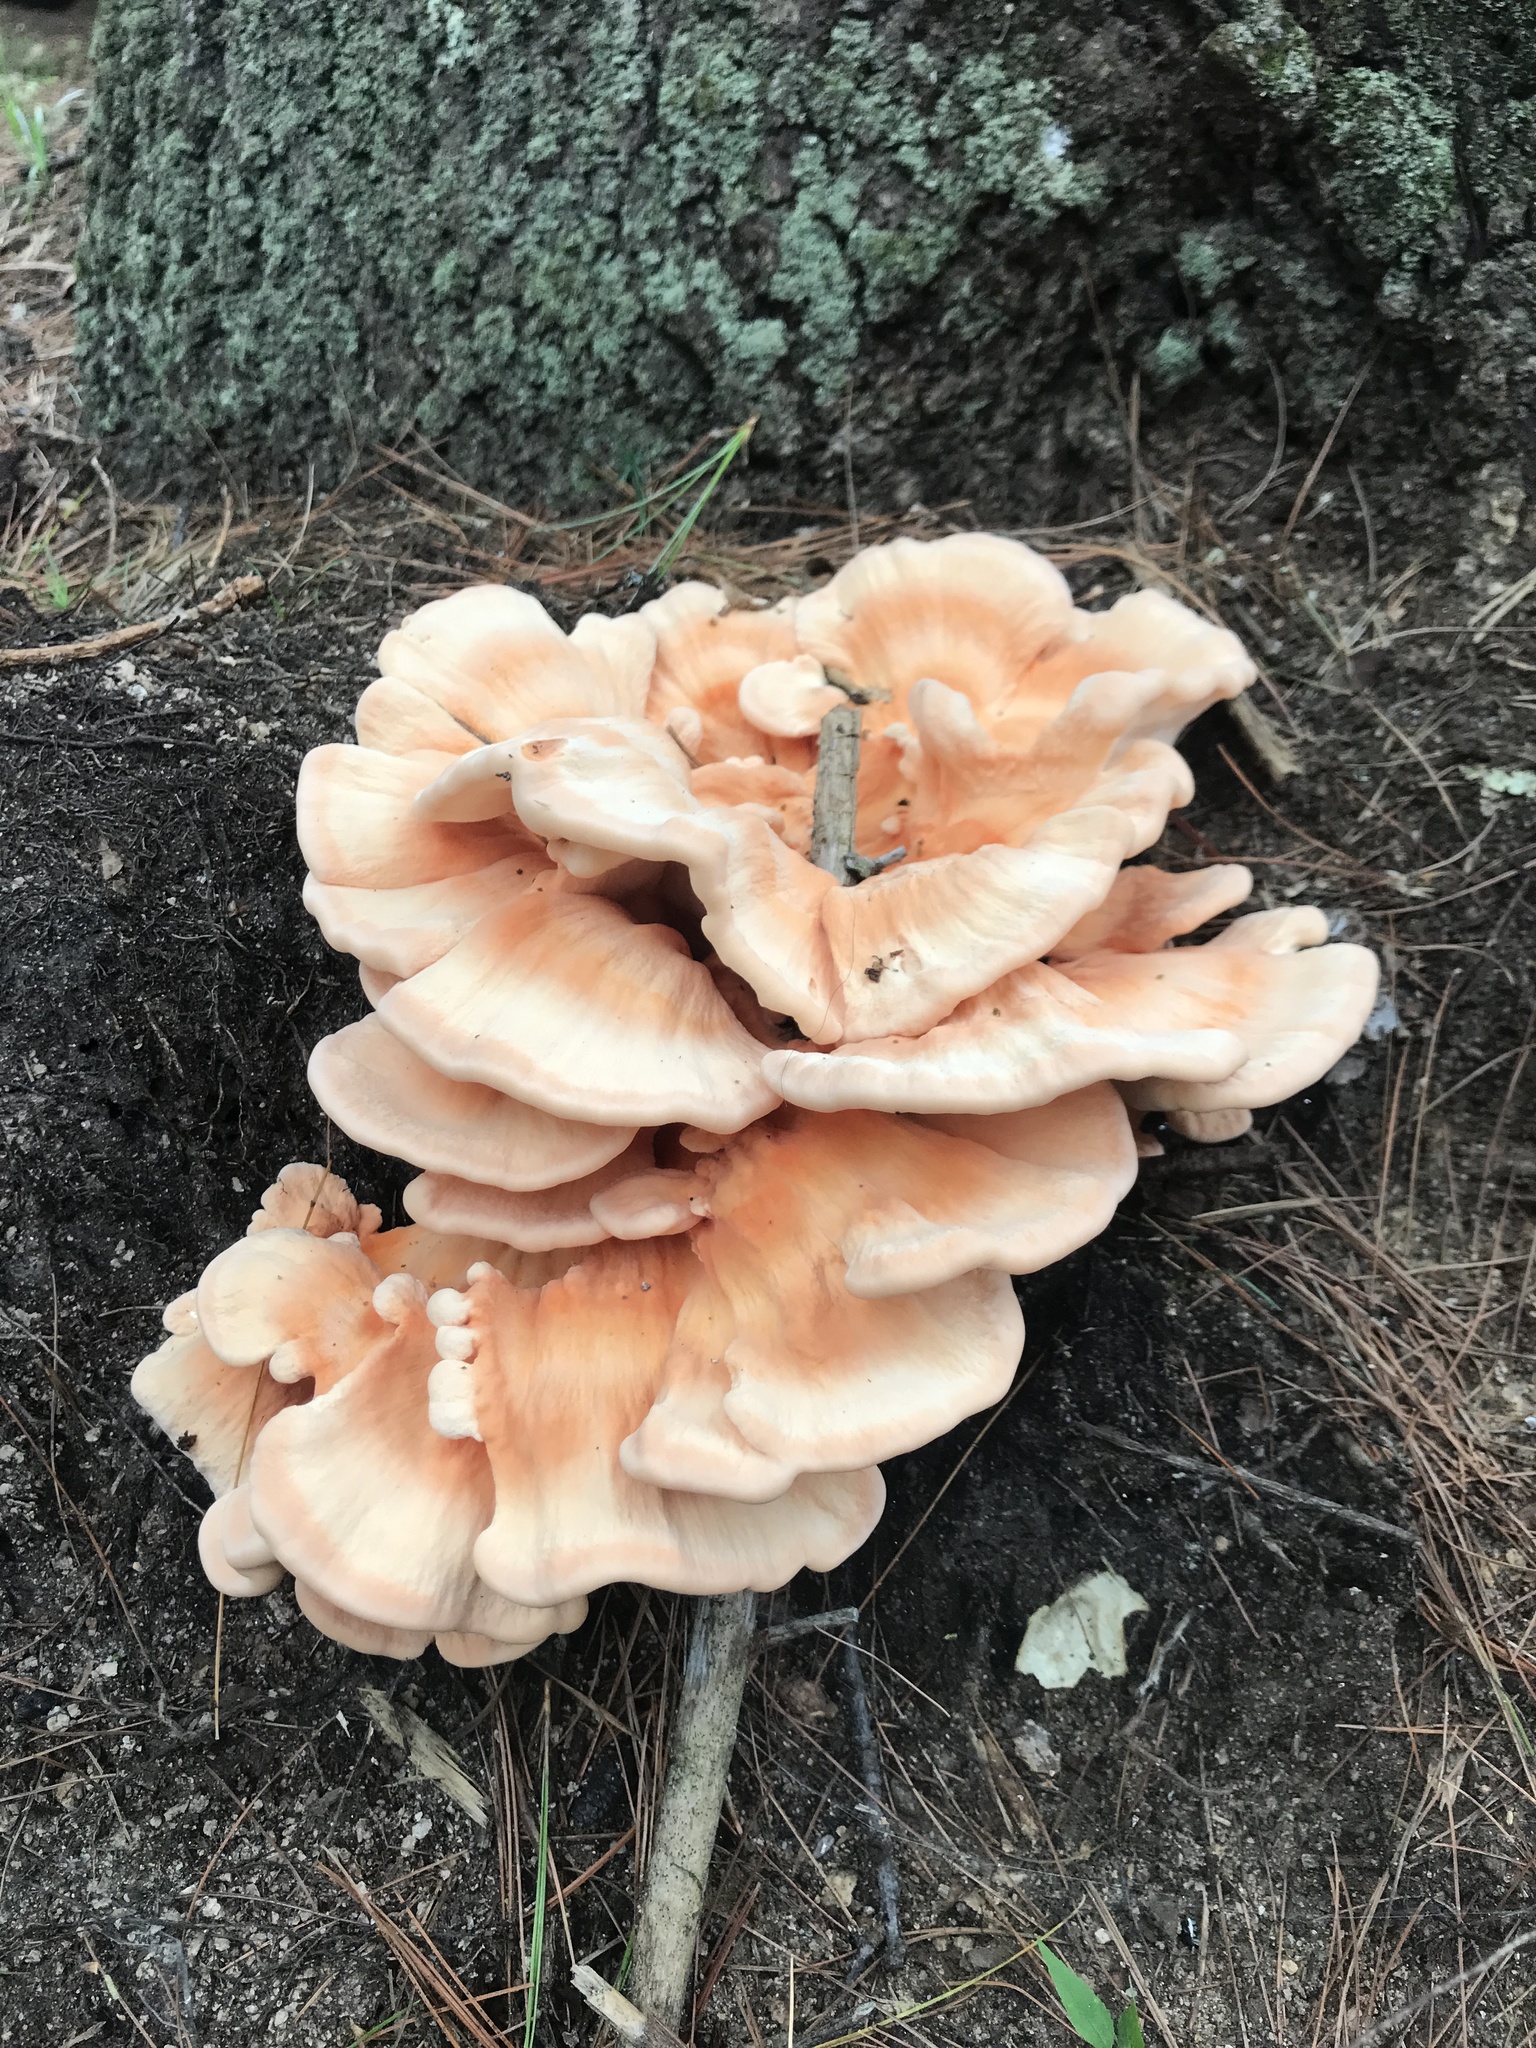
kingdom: Fungi
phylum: Basidiomycota
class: Agaricomycetes
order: Polyporales
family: Laetiporaceae
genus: Laetiporus
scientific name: Laetiporus sulphureus
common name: Chicken of the woods
